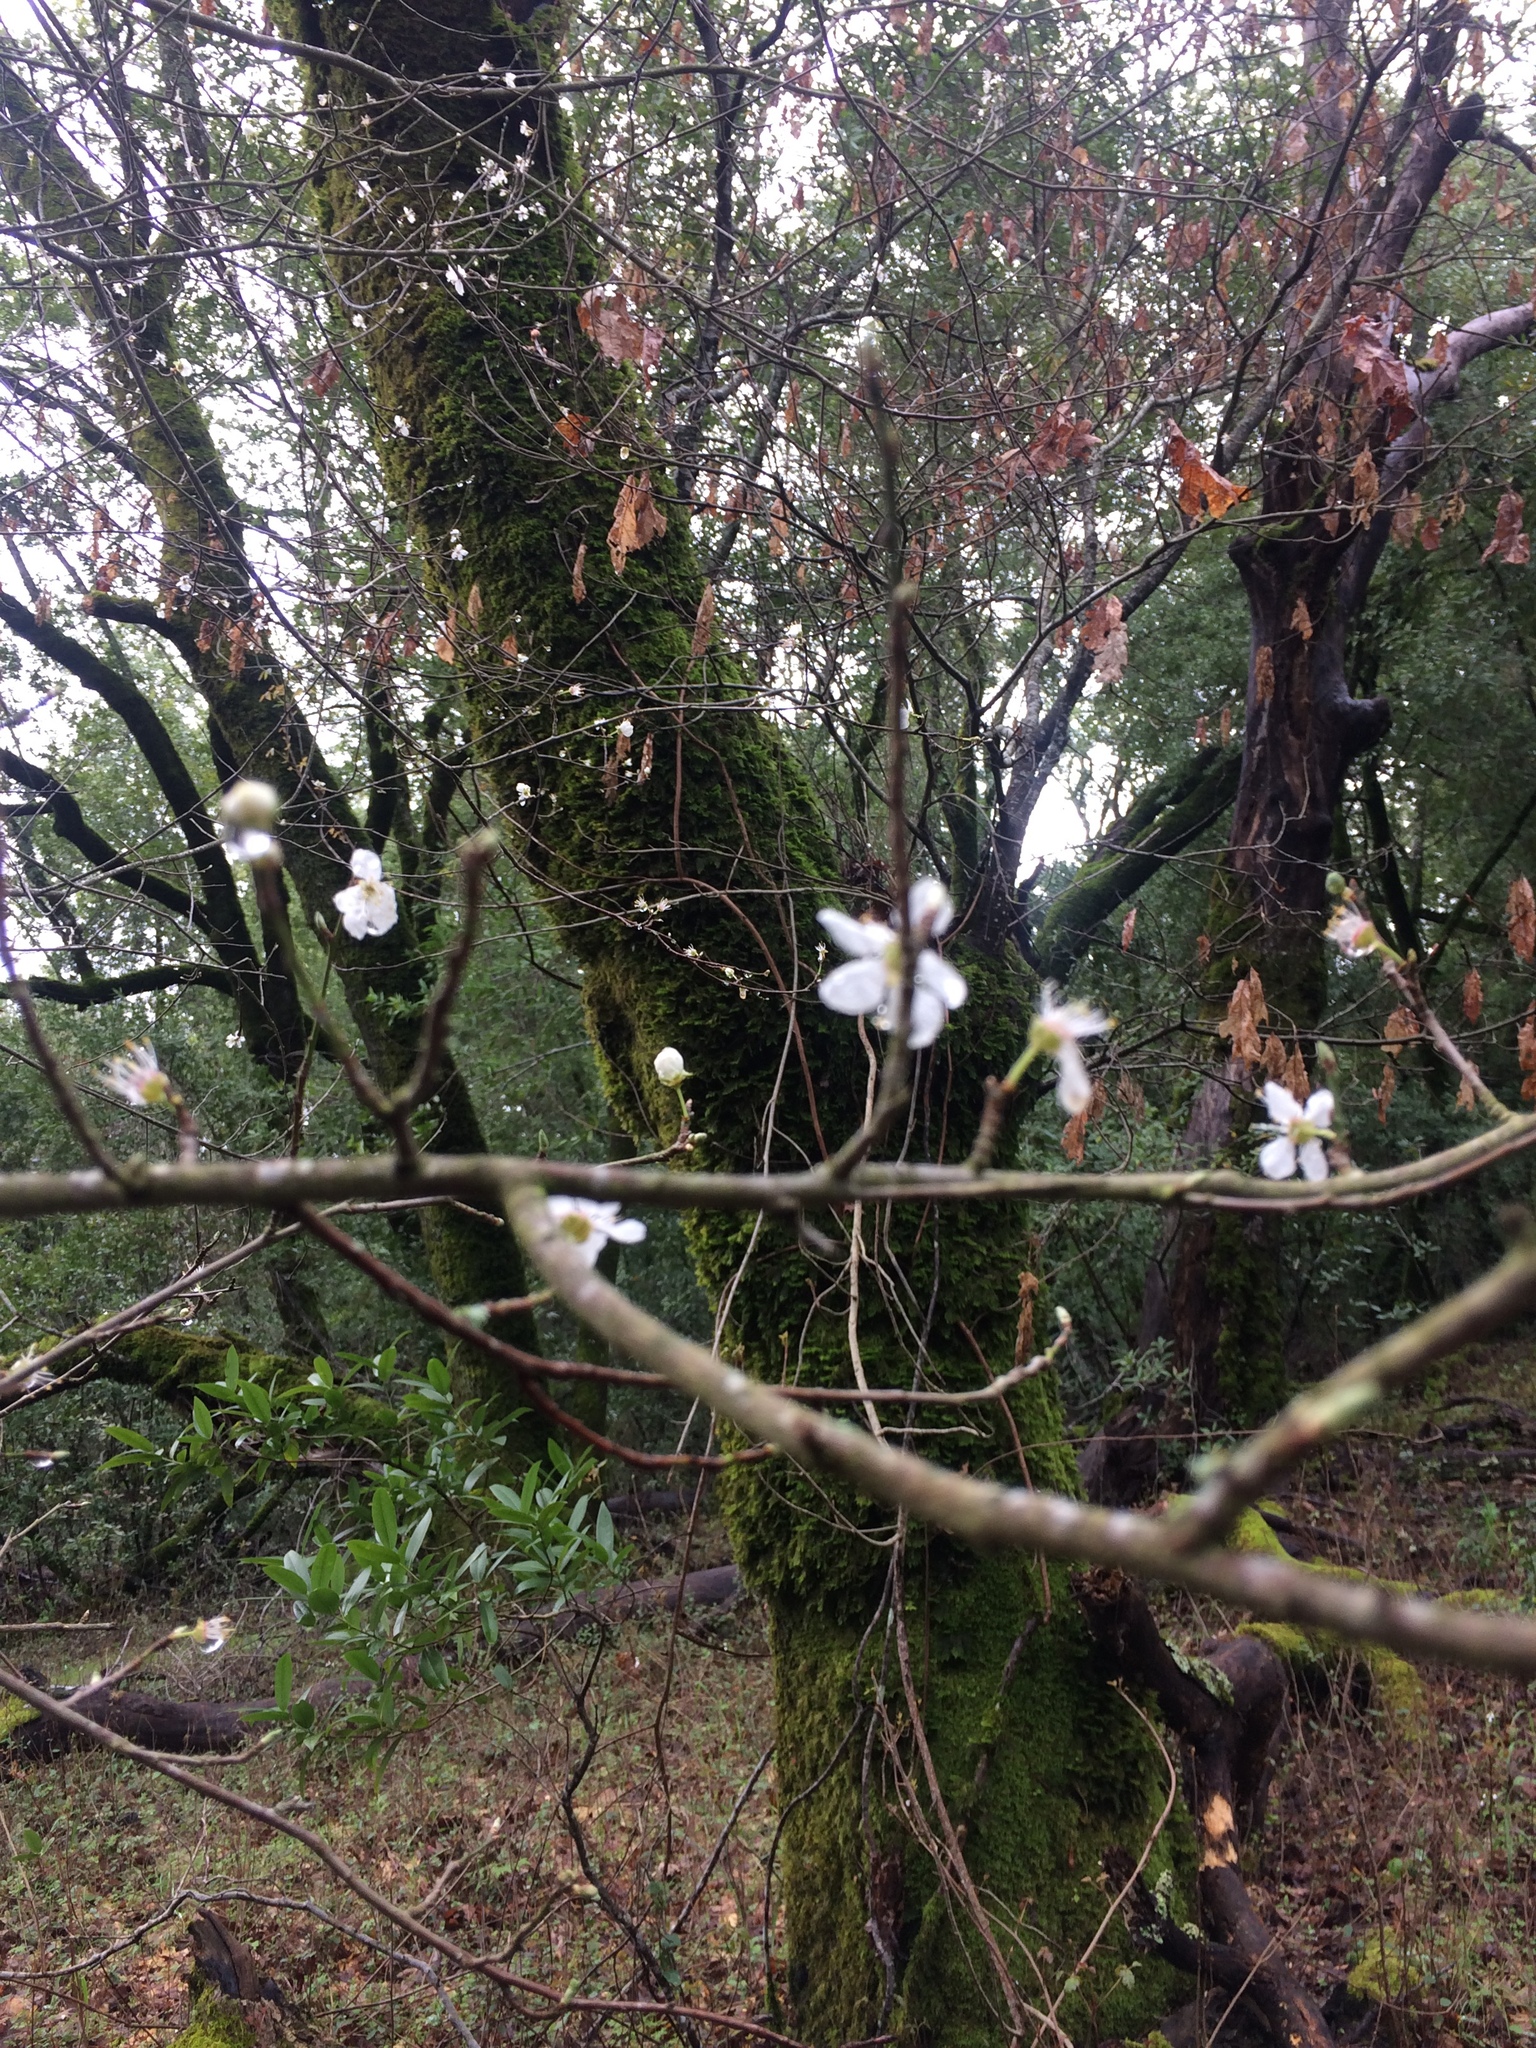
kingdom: Plantae
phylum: Tracheophyta
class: Magnoliopsida
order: Rosales
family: Rosaceae
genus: Prunus
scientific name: Prunus cerasifera
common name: Cherry plum
